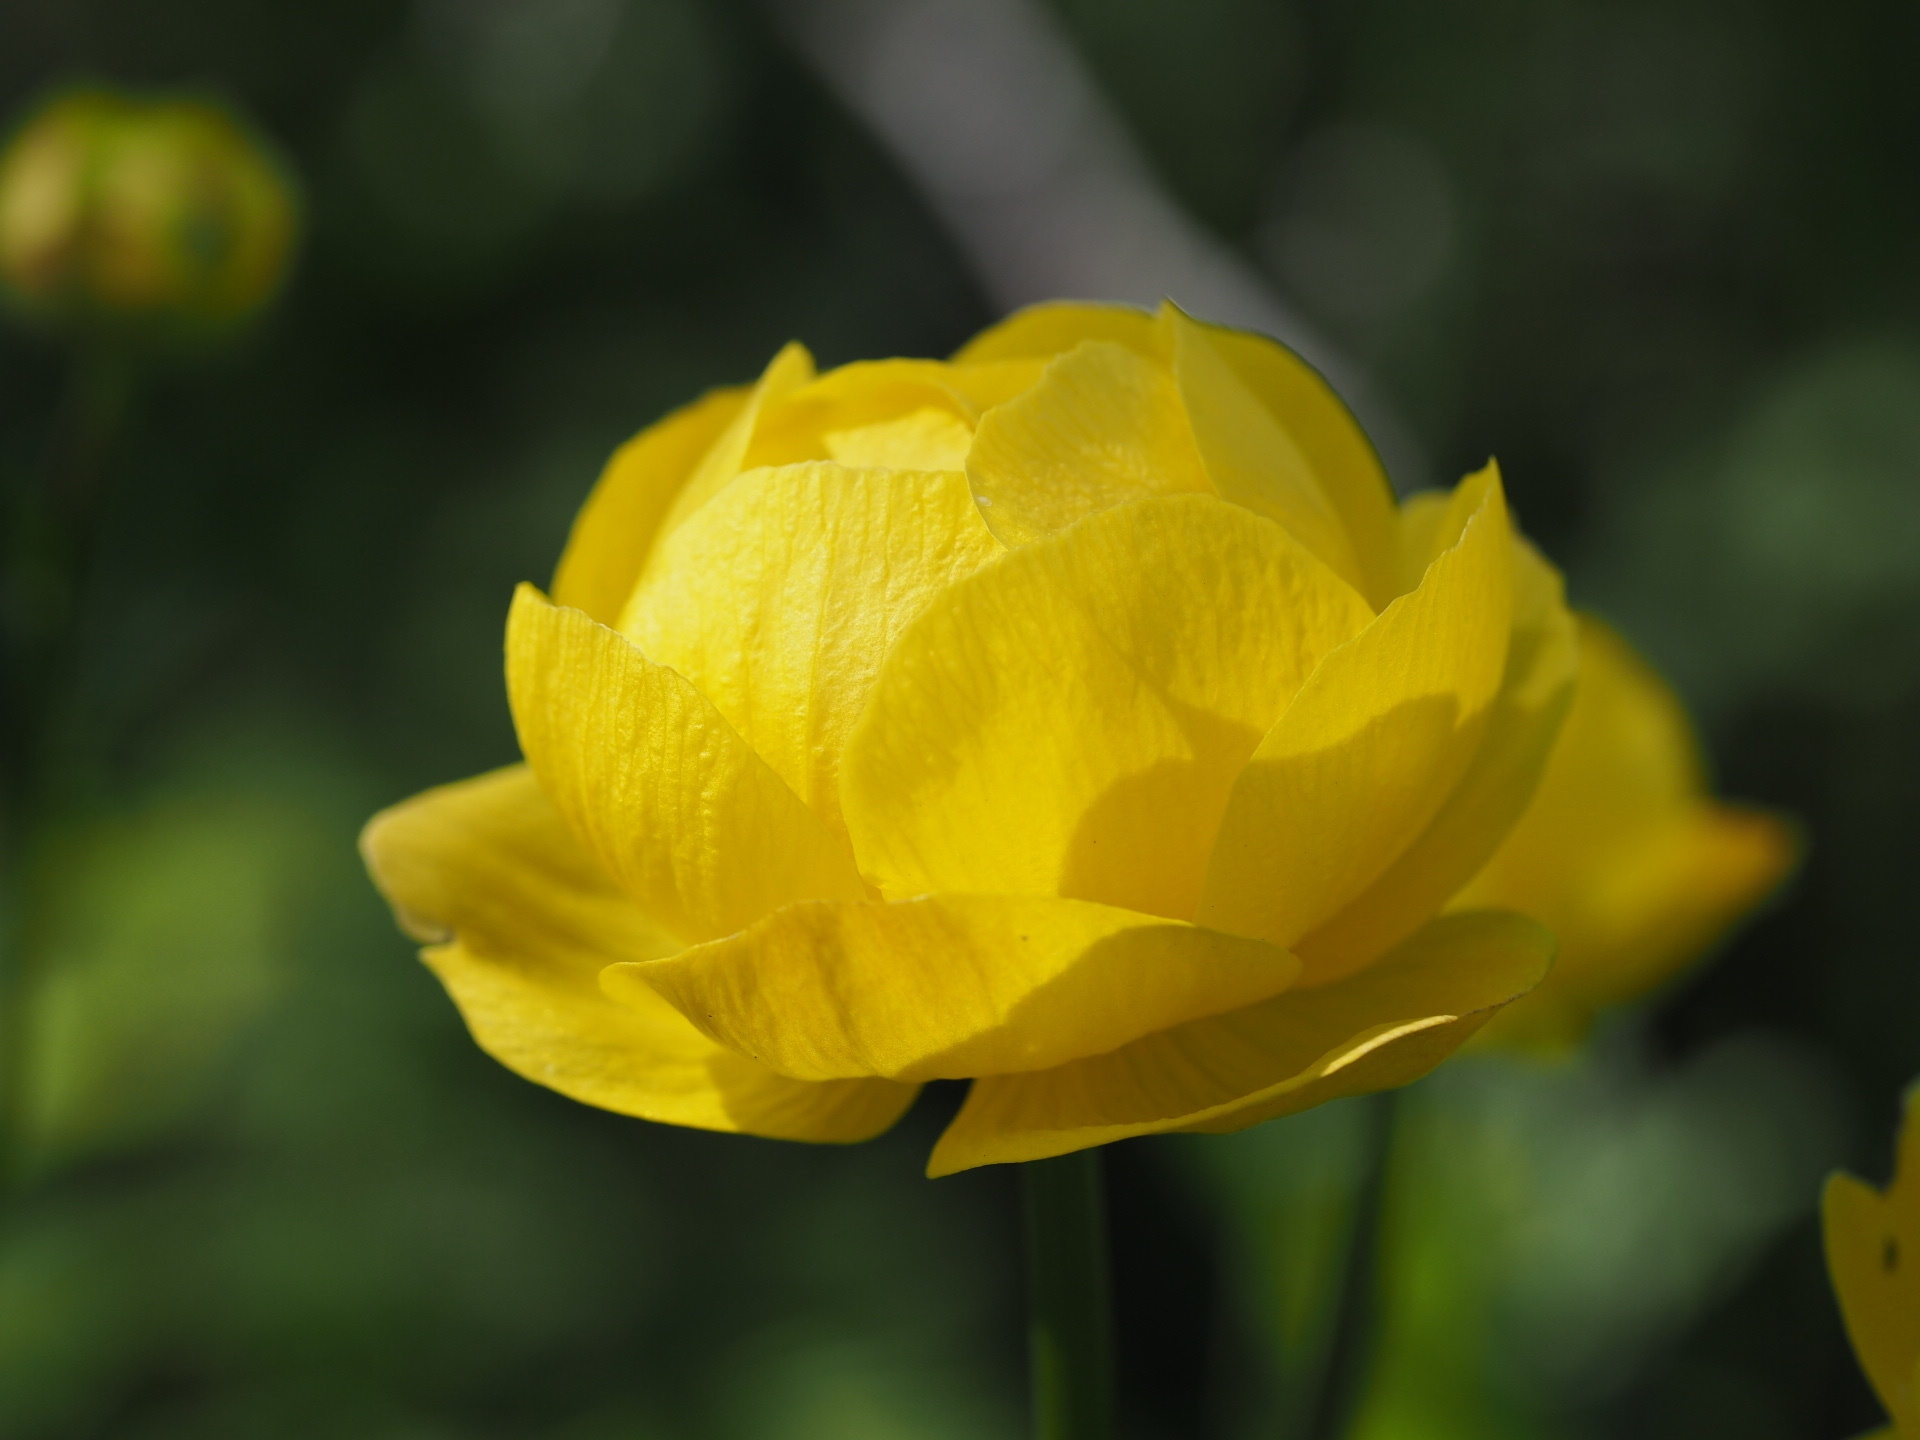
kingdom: Plantae
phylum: Tracheophyta
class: Magnoliopsida
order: Ranunculales
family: Ranunculaceae
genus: Trollius
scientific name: Trollius europaeus
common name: European globeflower
